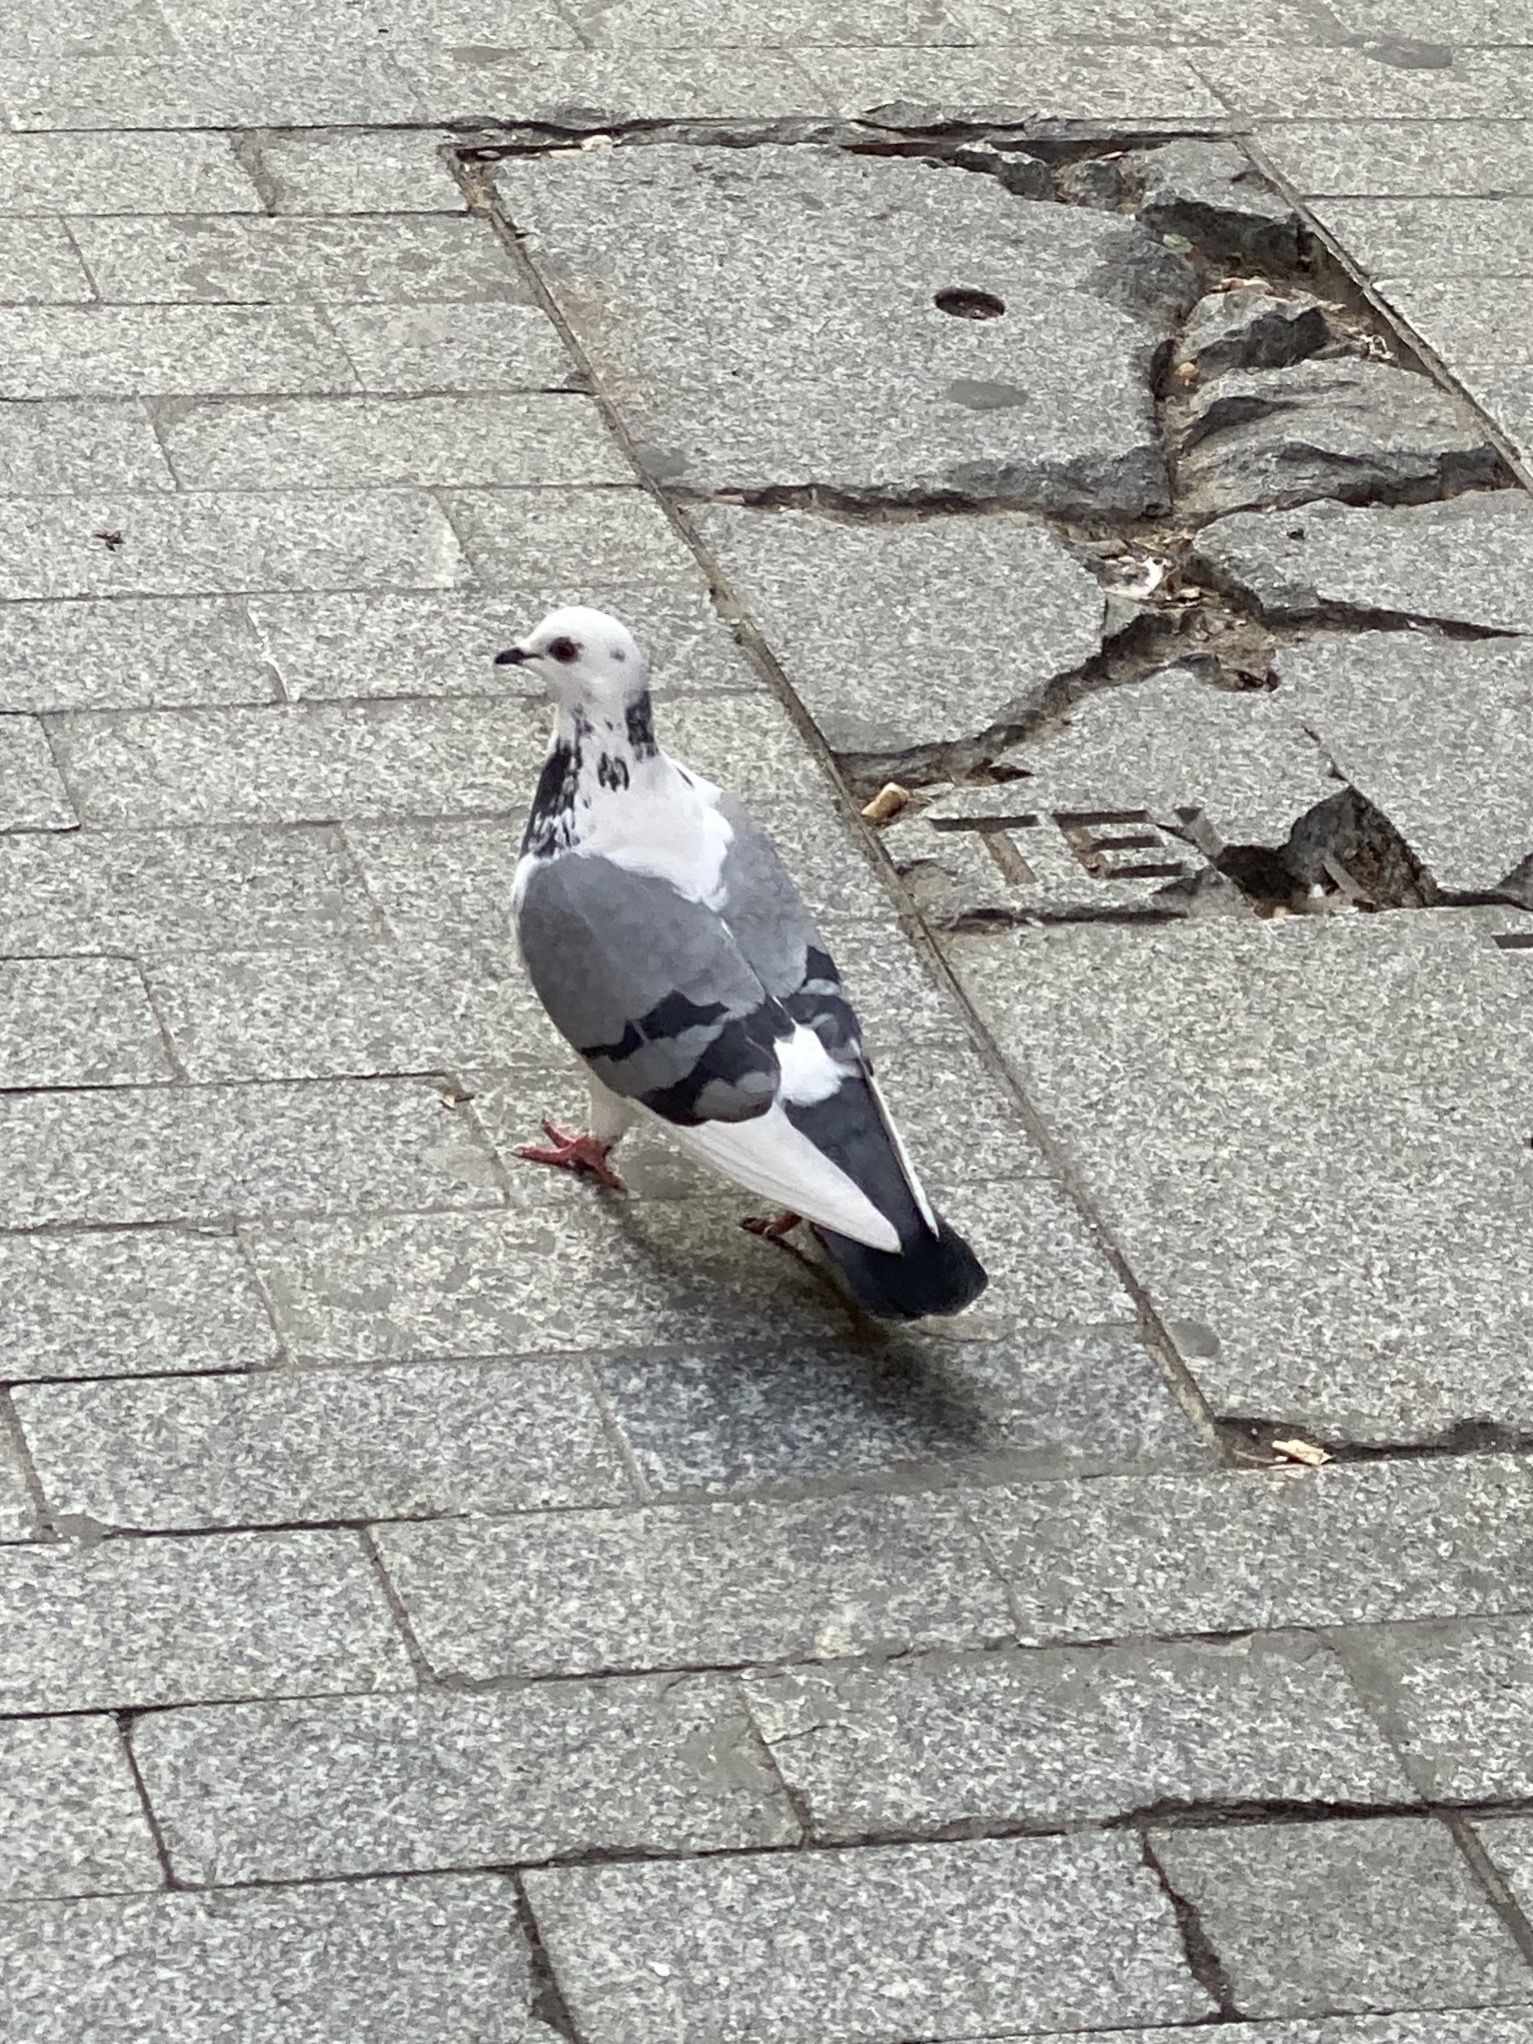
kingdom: Animalia
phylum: Chordata
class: Aves
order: Columbiformes
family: Columbidae
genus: Columba
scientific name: Columba livia
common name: Rock pigeon
